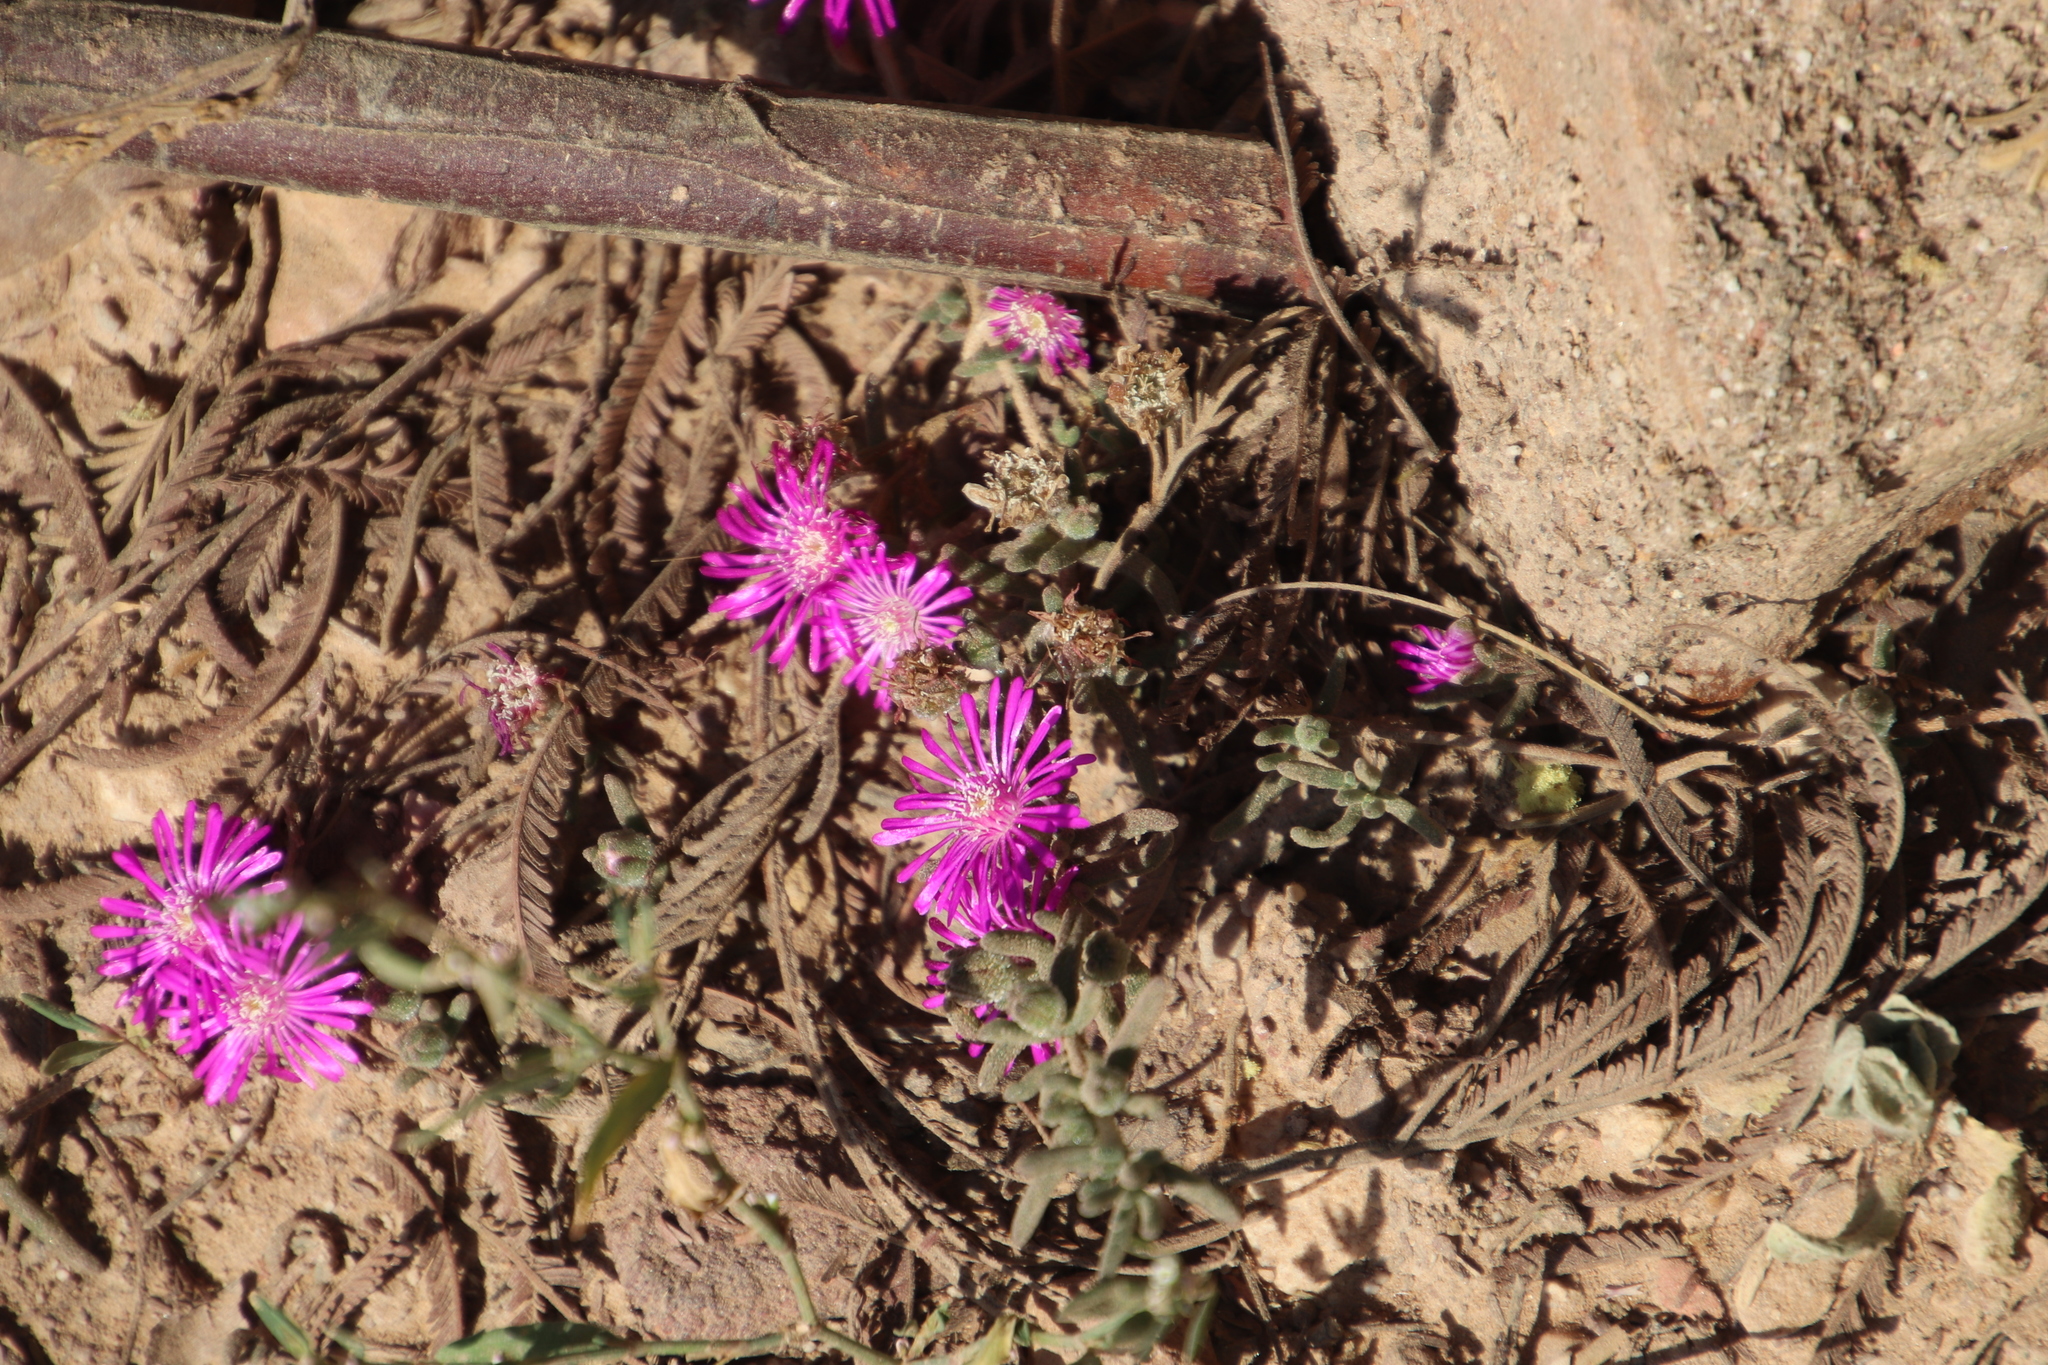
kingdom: Plantae
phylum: Tracheophyta
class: Magnoliopsida
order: Caryophyllales
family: Aizoaceae
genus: Drosanthemum
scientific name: Drosanthemum ambiguum
